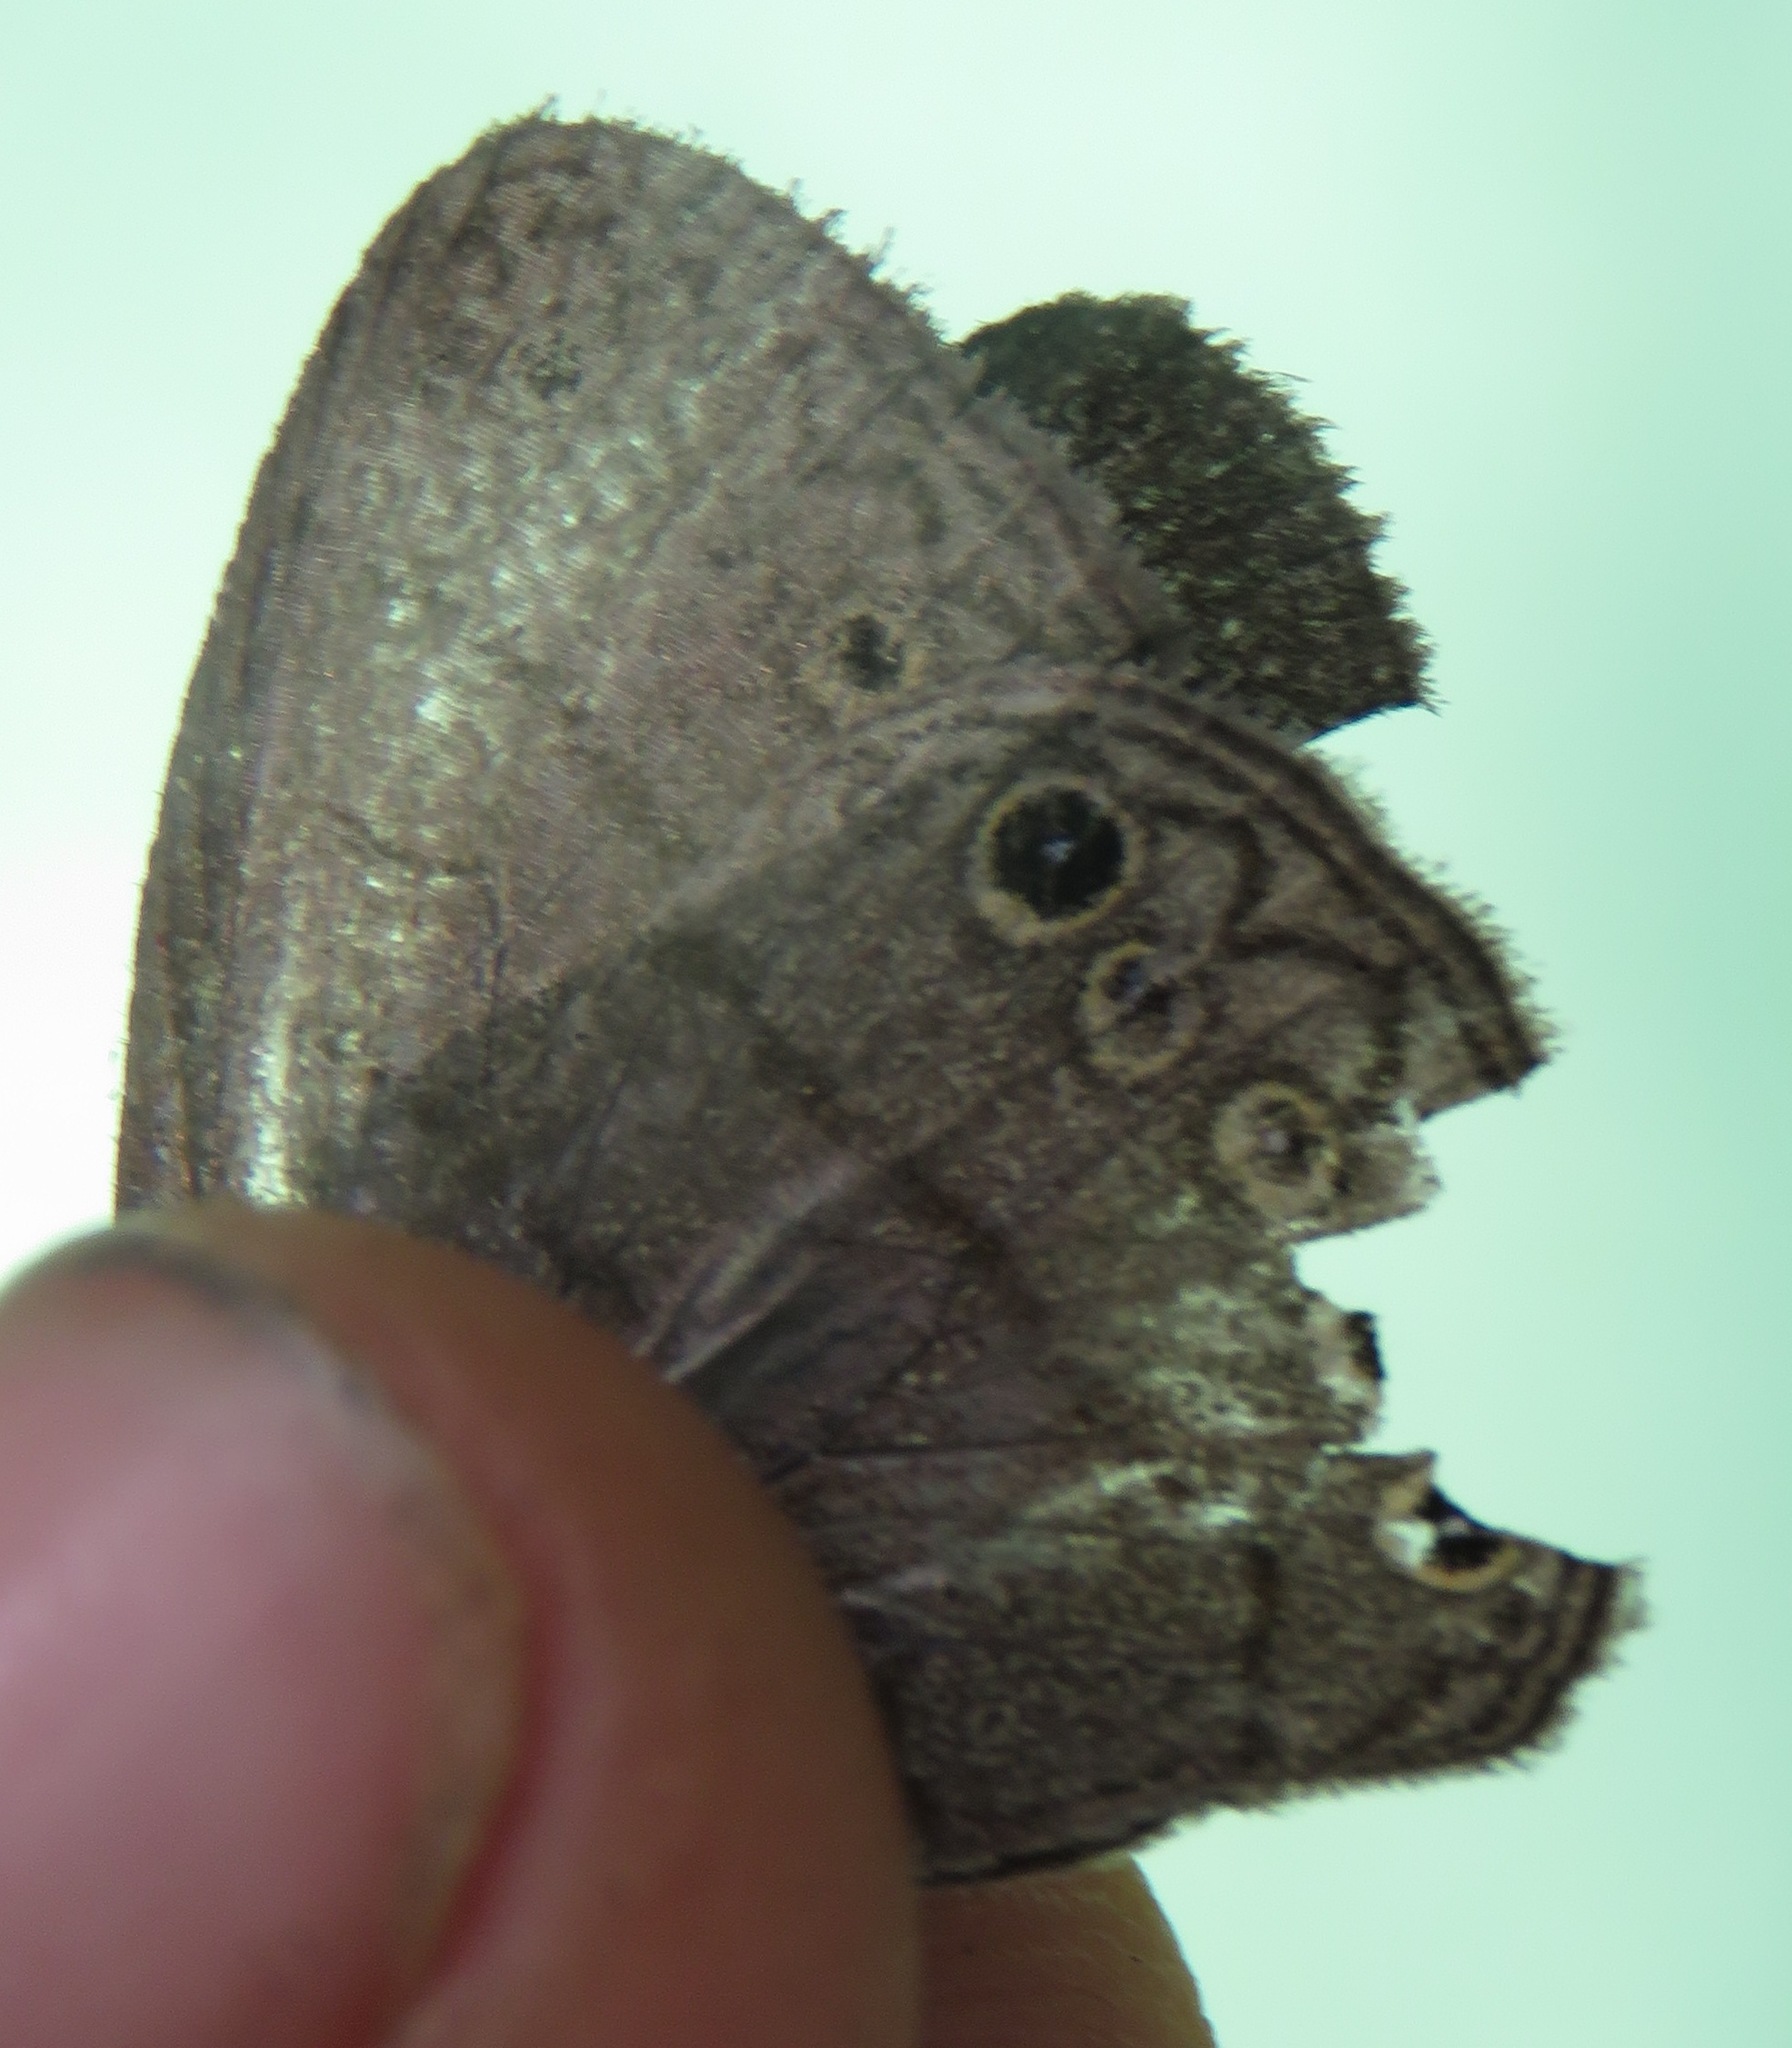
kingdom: Animalia
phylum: Arthropoda
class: Insecta
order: Lepidoptera
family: Nymphalidae
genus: Hermeuptychia
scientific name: Hermeuptychia hermes
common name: Hermes satyr
